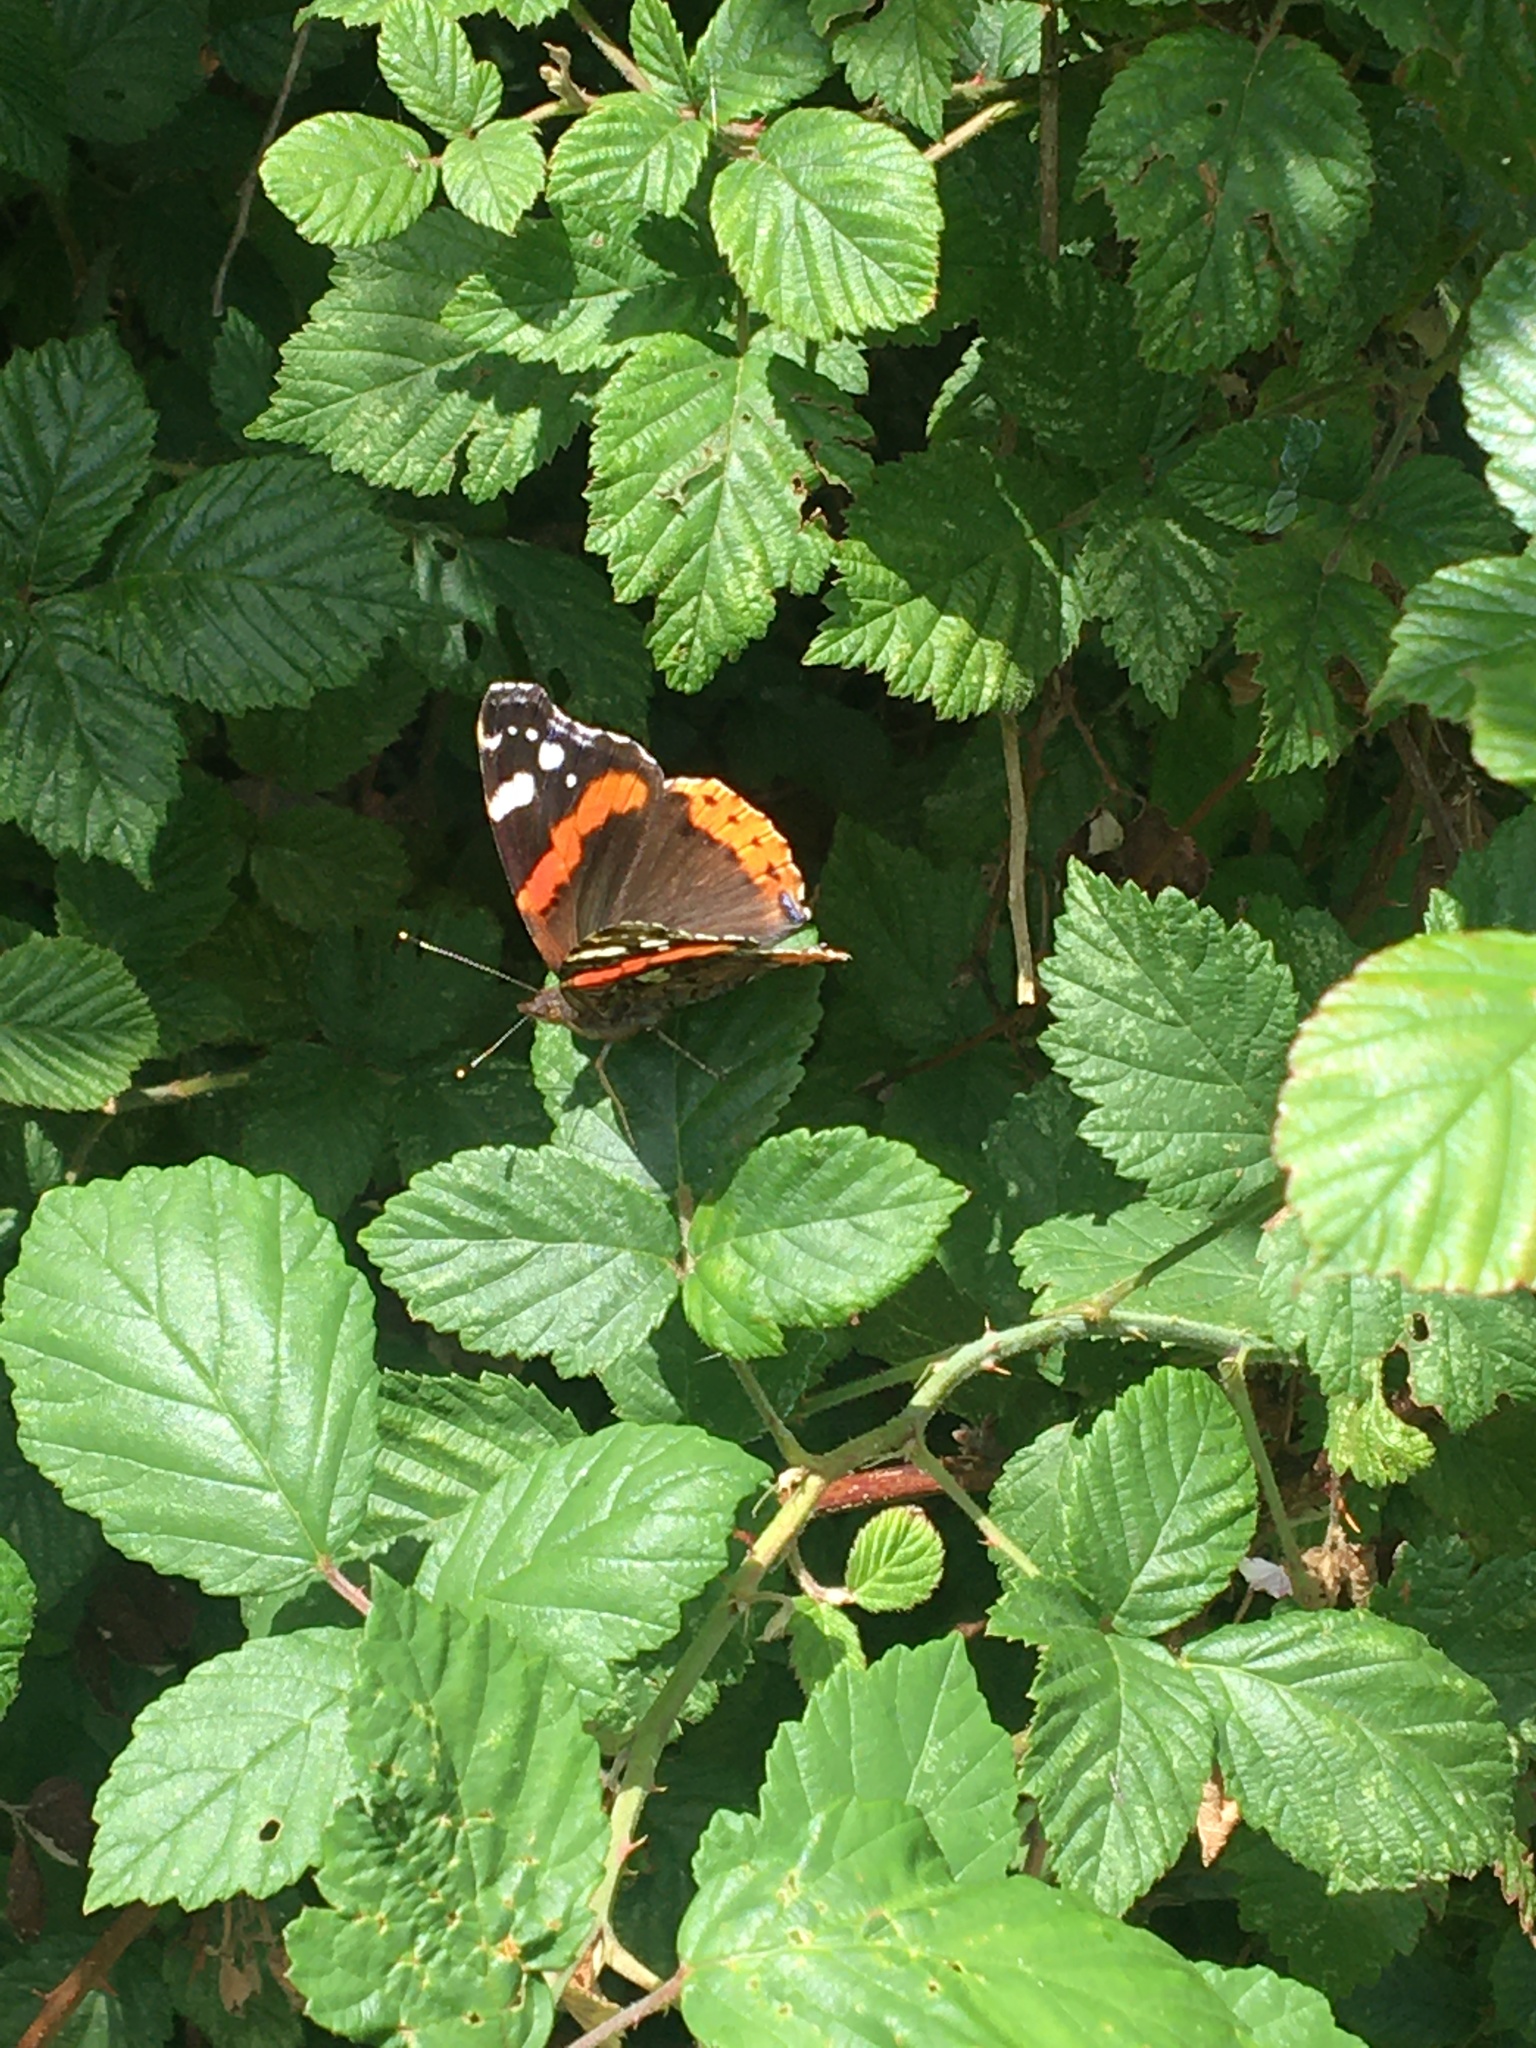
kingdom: Animalia
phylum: Arthropoda
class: Insecta
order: Lepidoptera
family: Nymphalidae
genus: Vanessa
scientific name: Vanessa atalanta
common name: Red admiral
